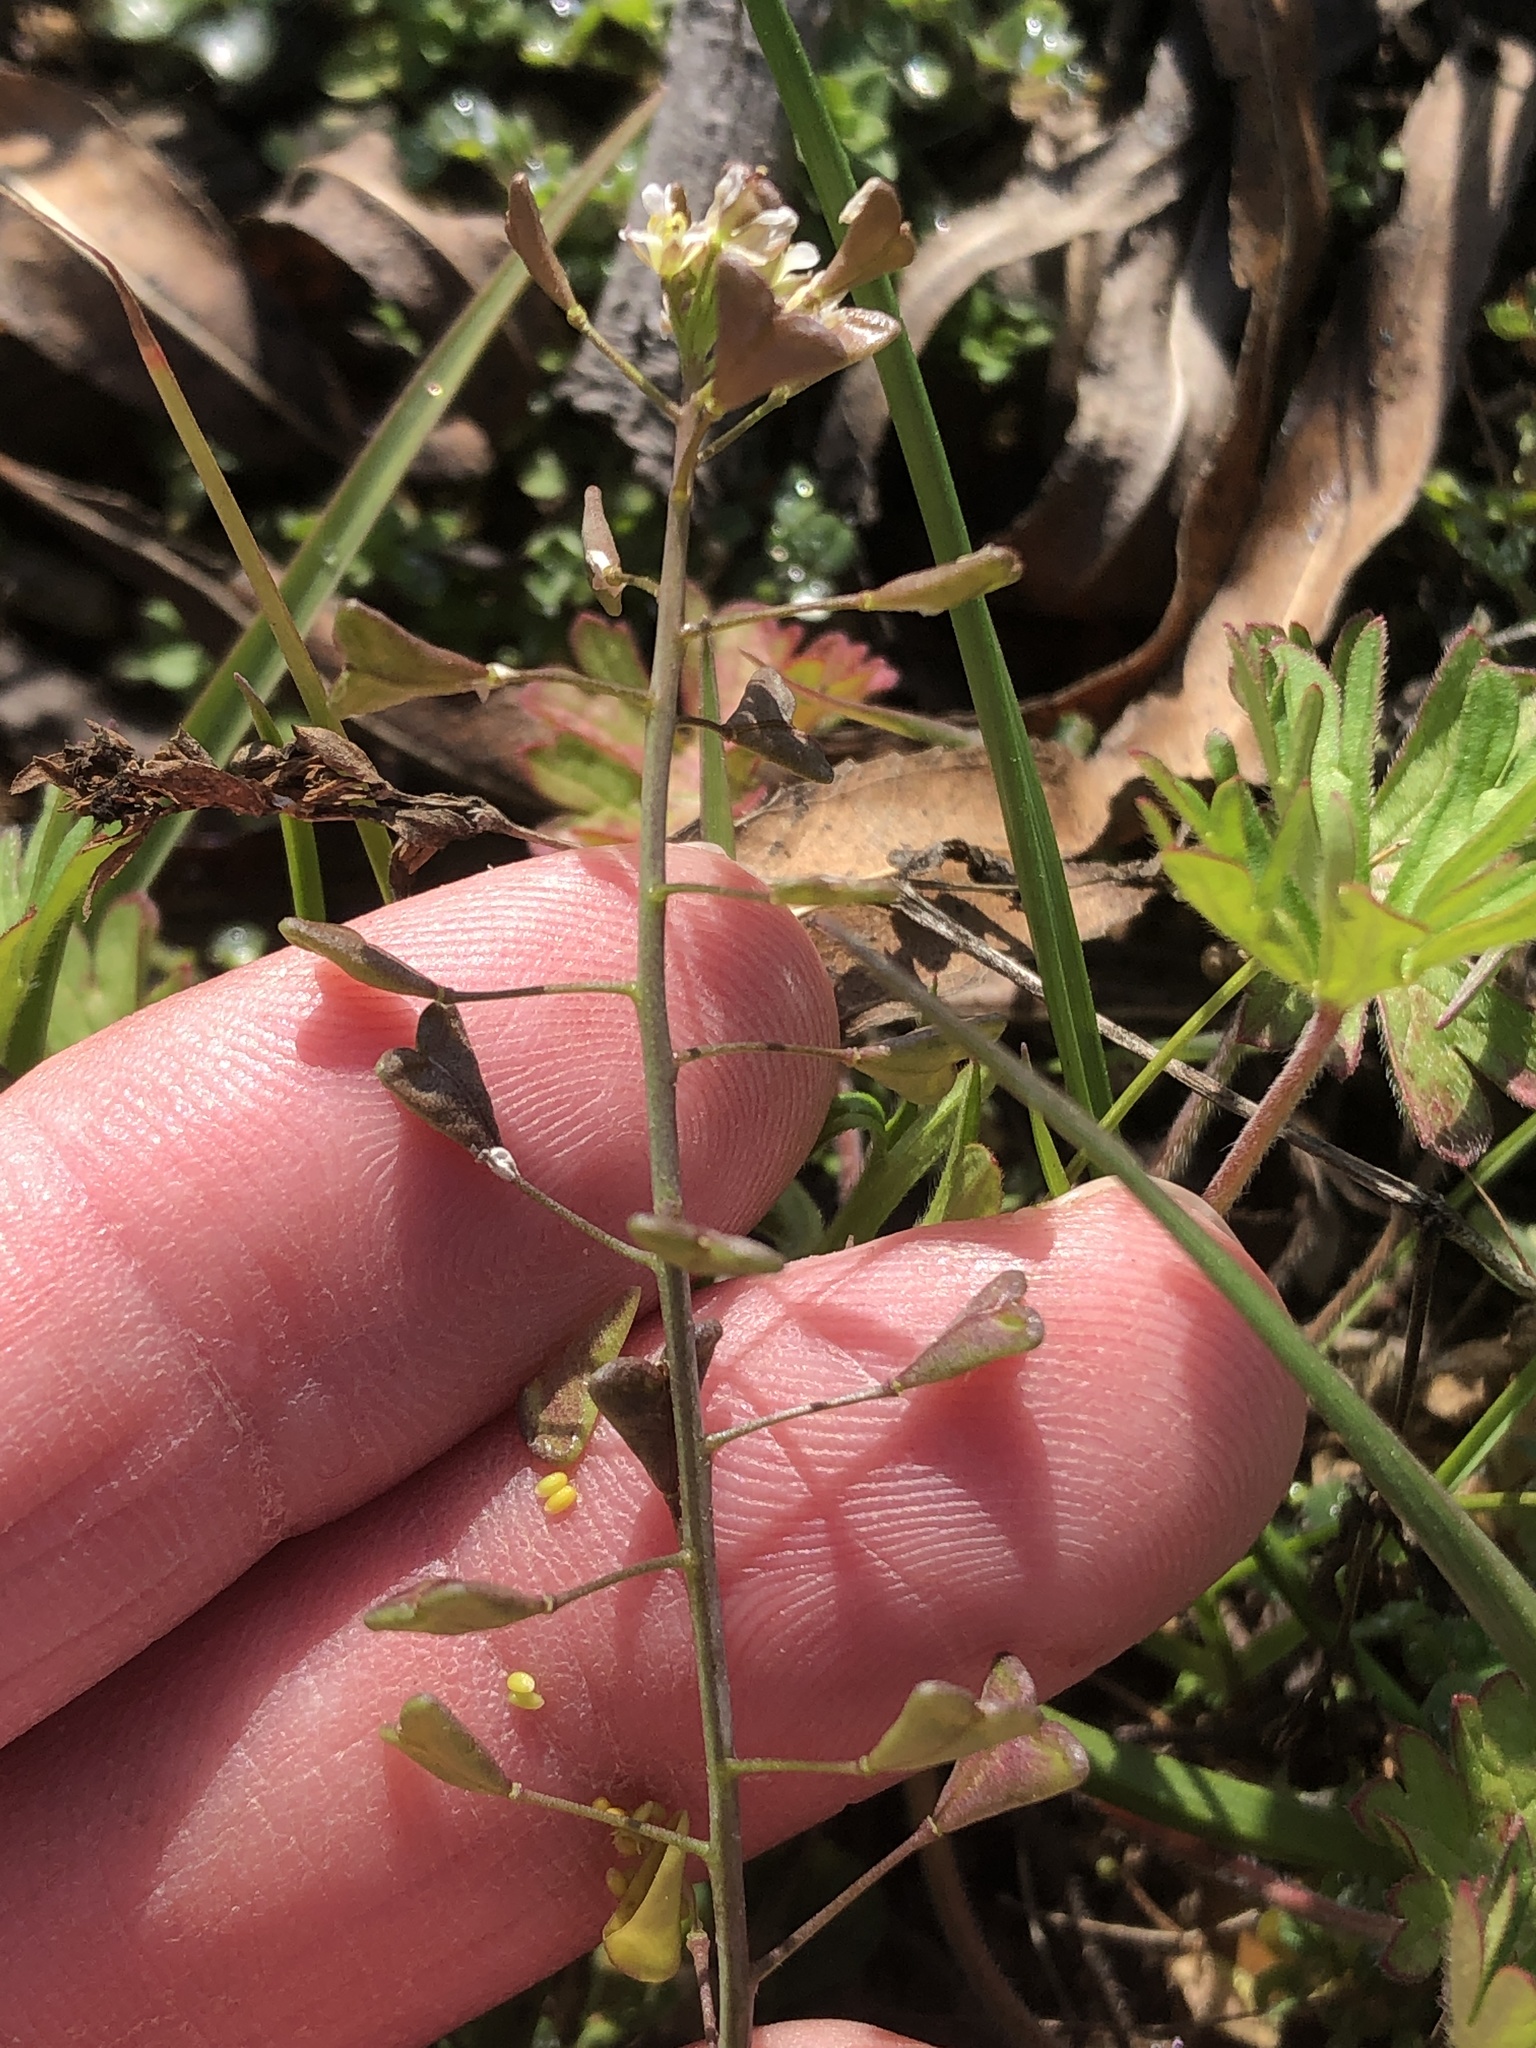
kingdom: Plantae
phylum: Tracheophyta
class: Magnoliopsida
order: Brassicales
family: Brassicaceae
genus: Capsella
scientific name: Capsella bursa-pastoris
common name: Shepherd's purse
